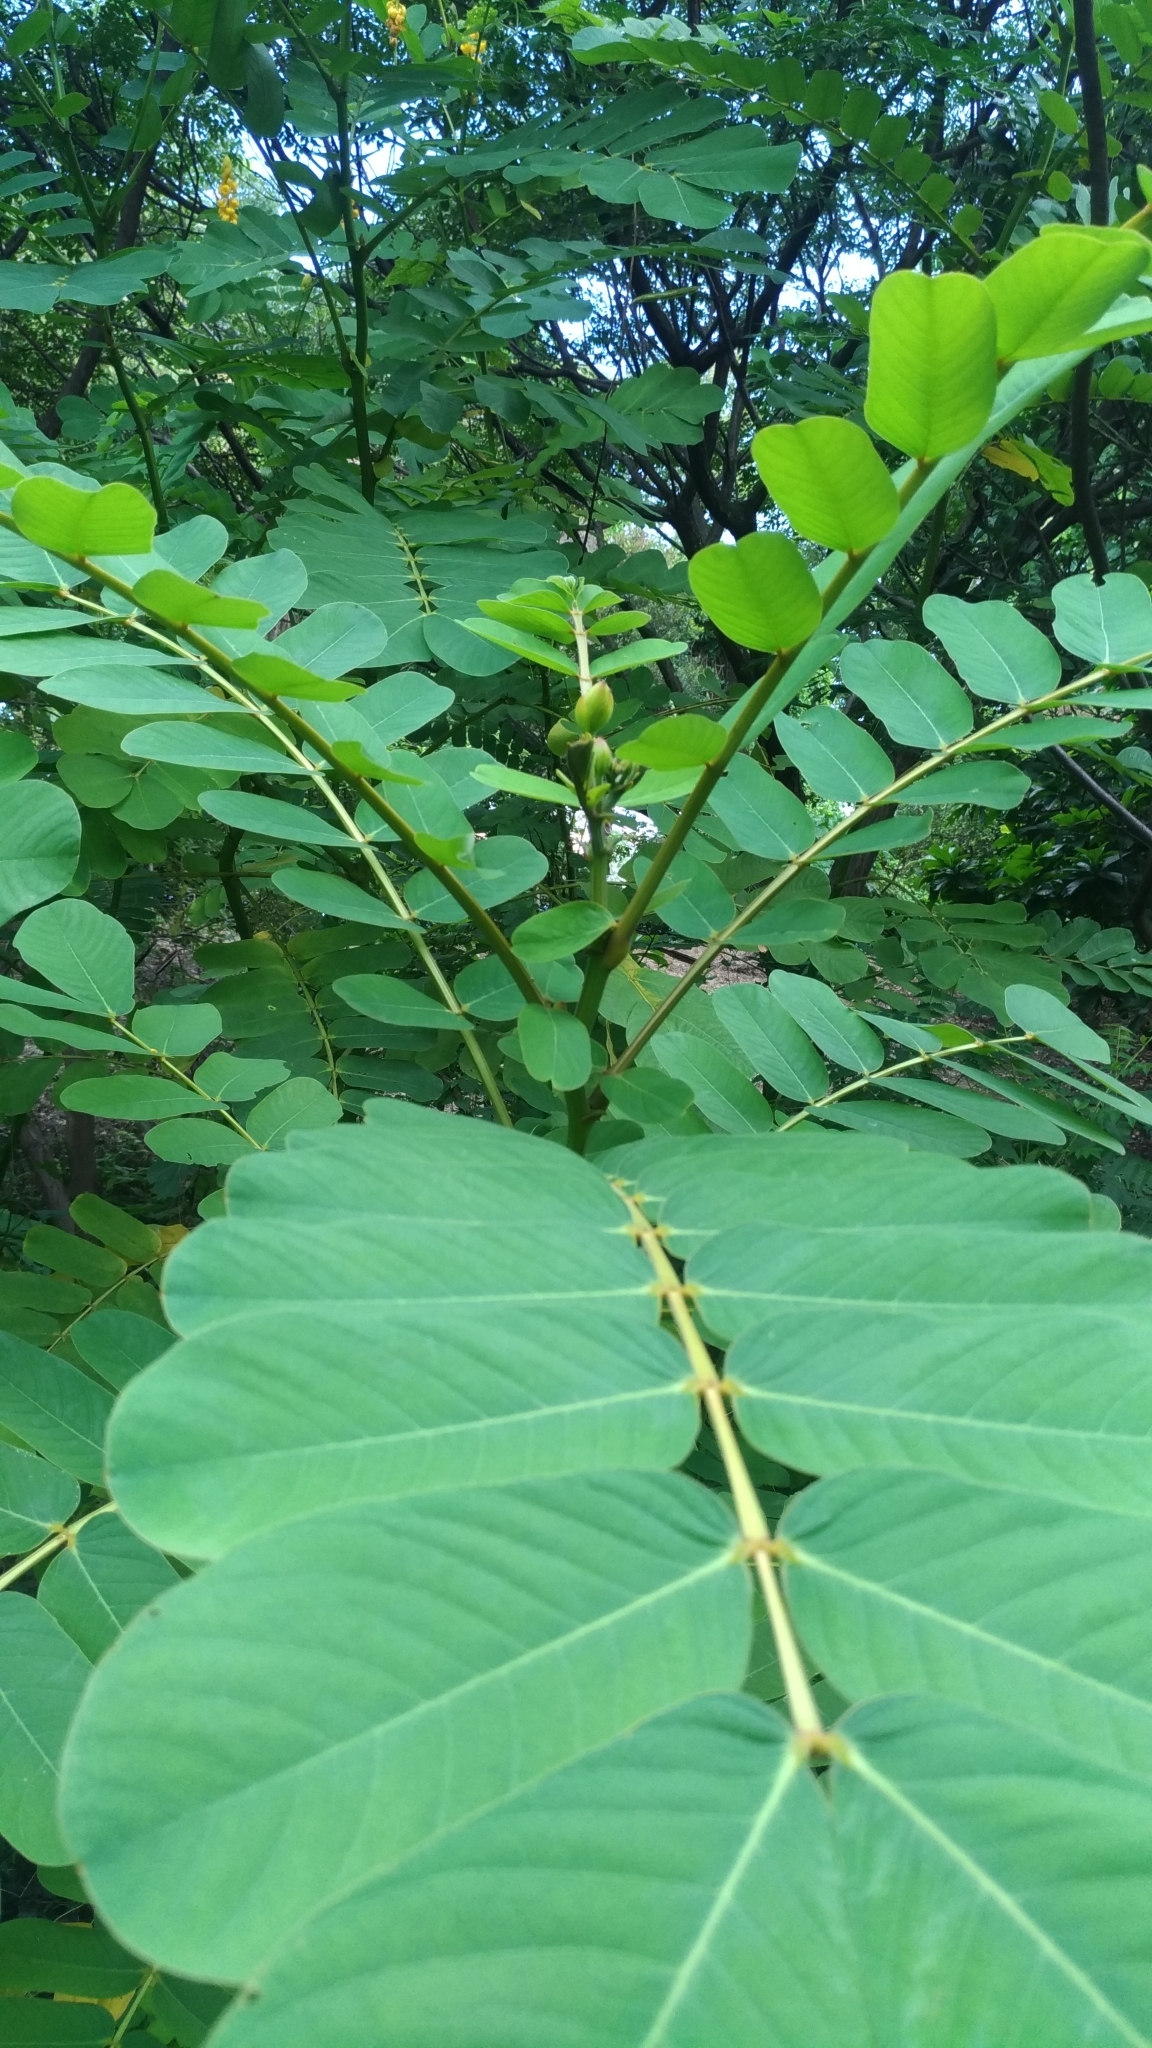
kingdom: Plantae
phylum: Tracheophyta
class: Magnoliopsida
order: Fabales
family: Fabaceae
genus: Senna
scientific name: Senna alata
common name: Emperor's candlesticks
